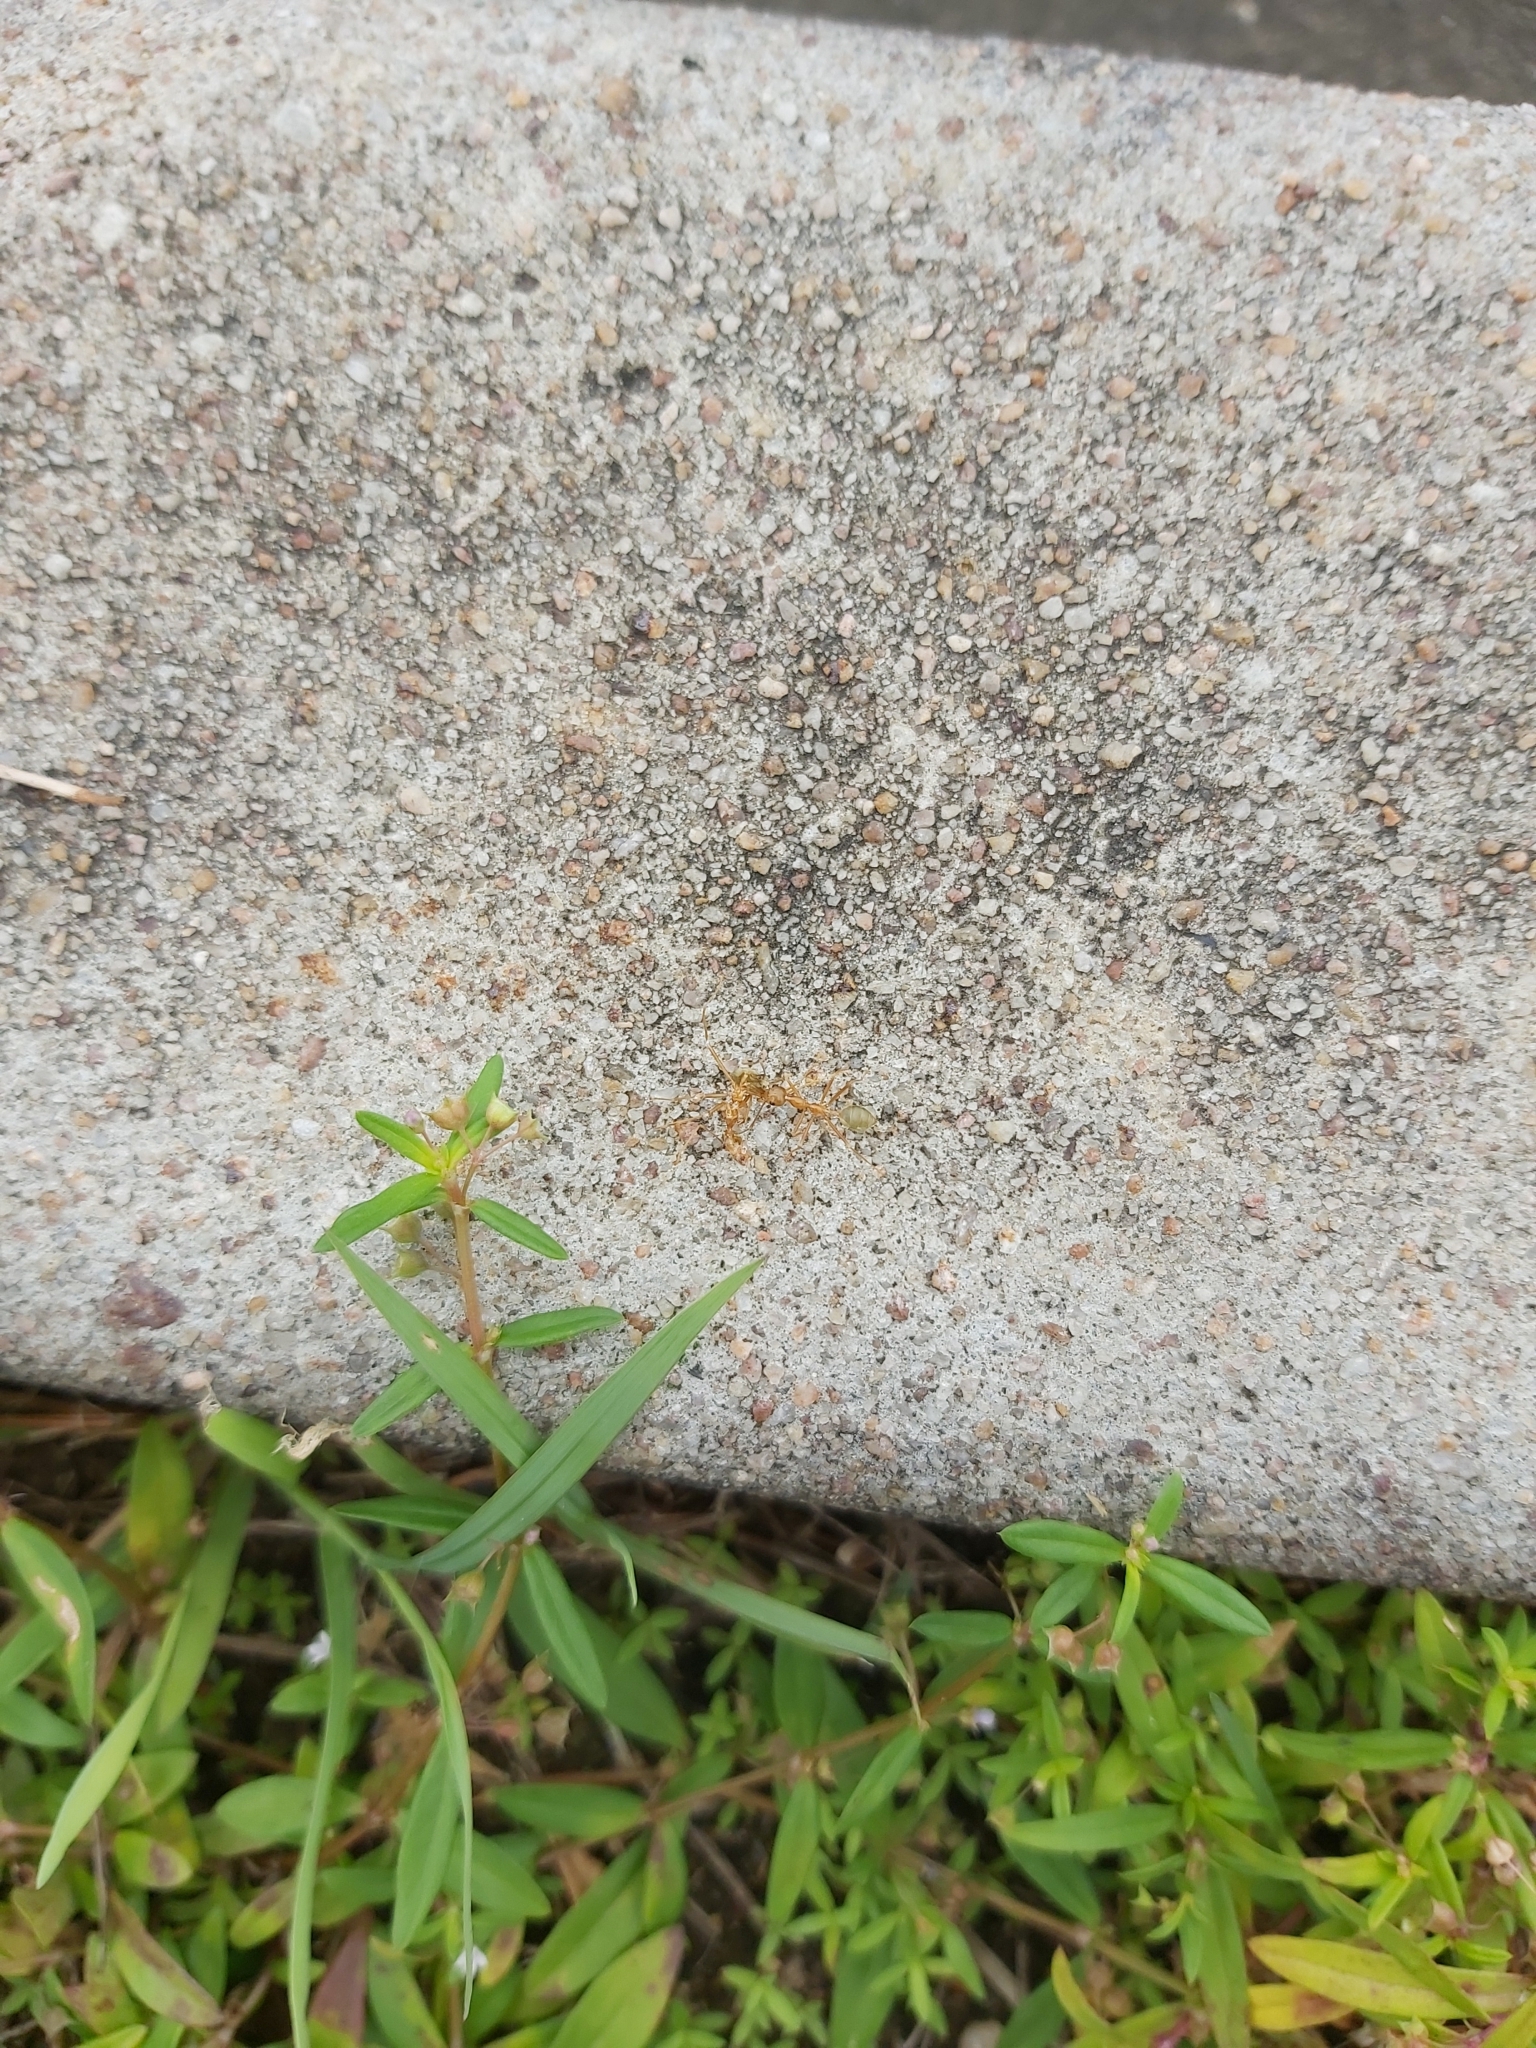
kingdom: Animalia
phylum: Arthropoda
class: Insecta
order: Hymenoptera
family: Formicidae
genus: Oecophylla
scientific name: Oecophylla smaragdina
